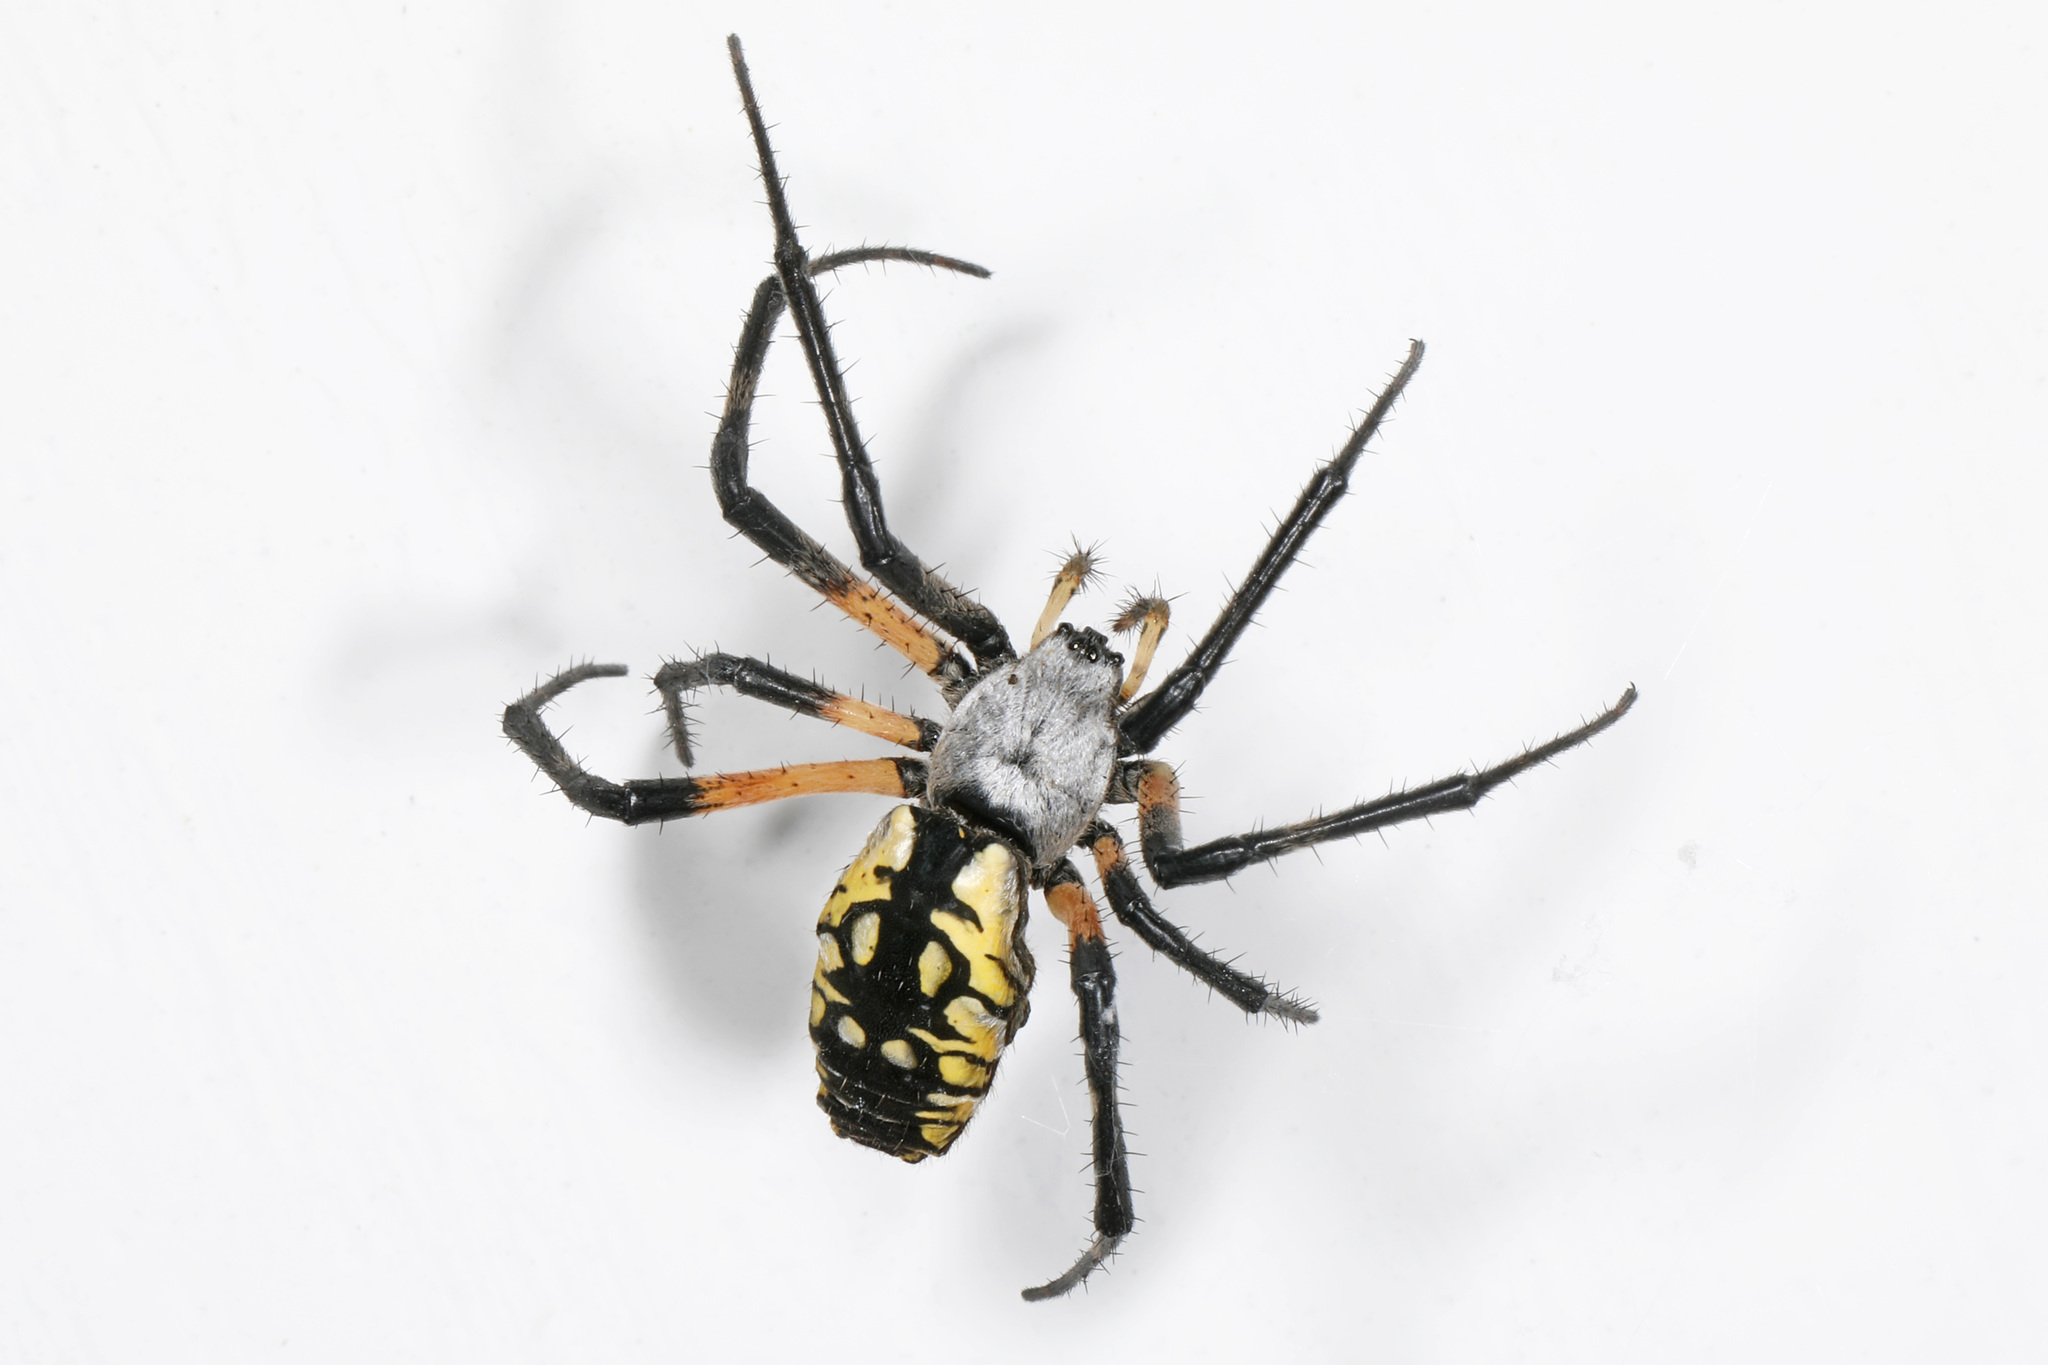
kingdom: Animalia
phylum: Arthropoda
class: Arachnida
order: Araneae
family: Araneidae
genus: Argiope
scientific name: Argiope aurantia
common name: Orb weavers
